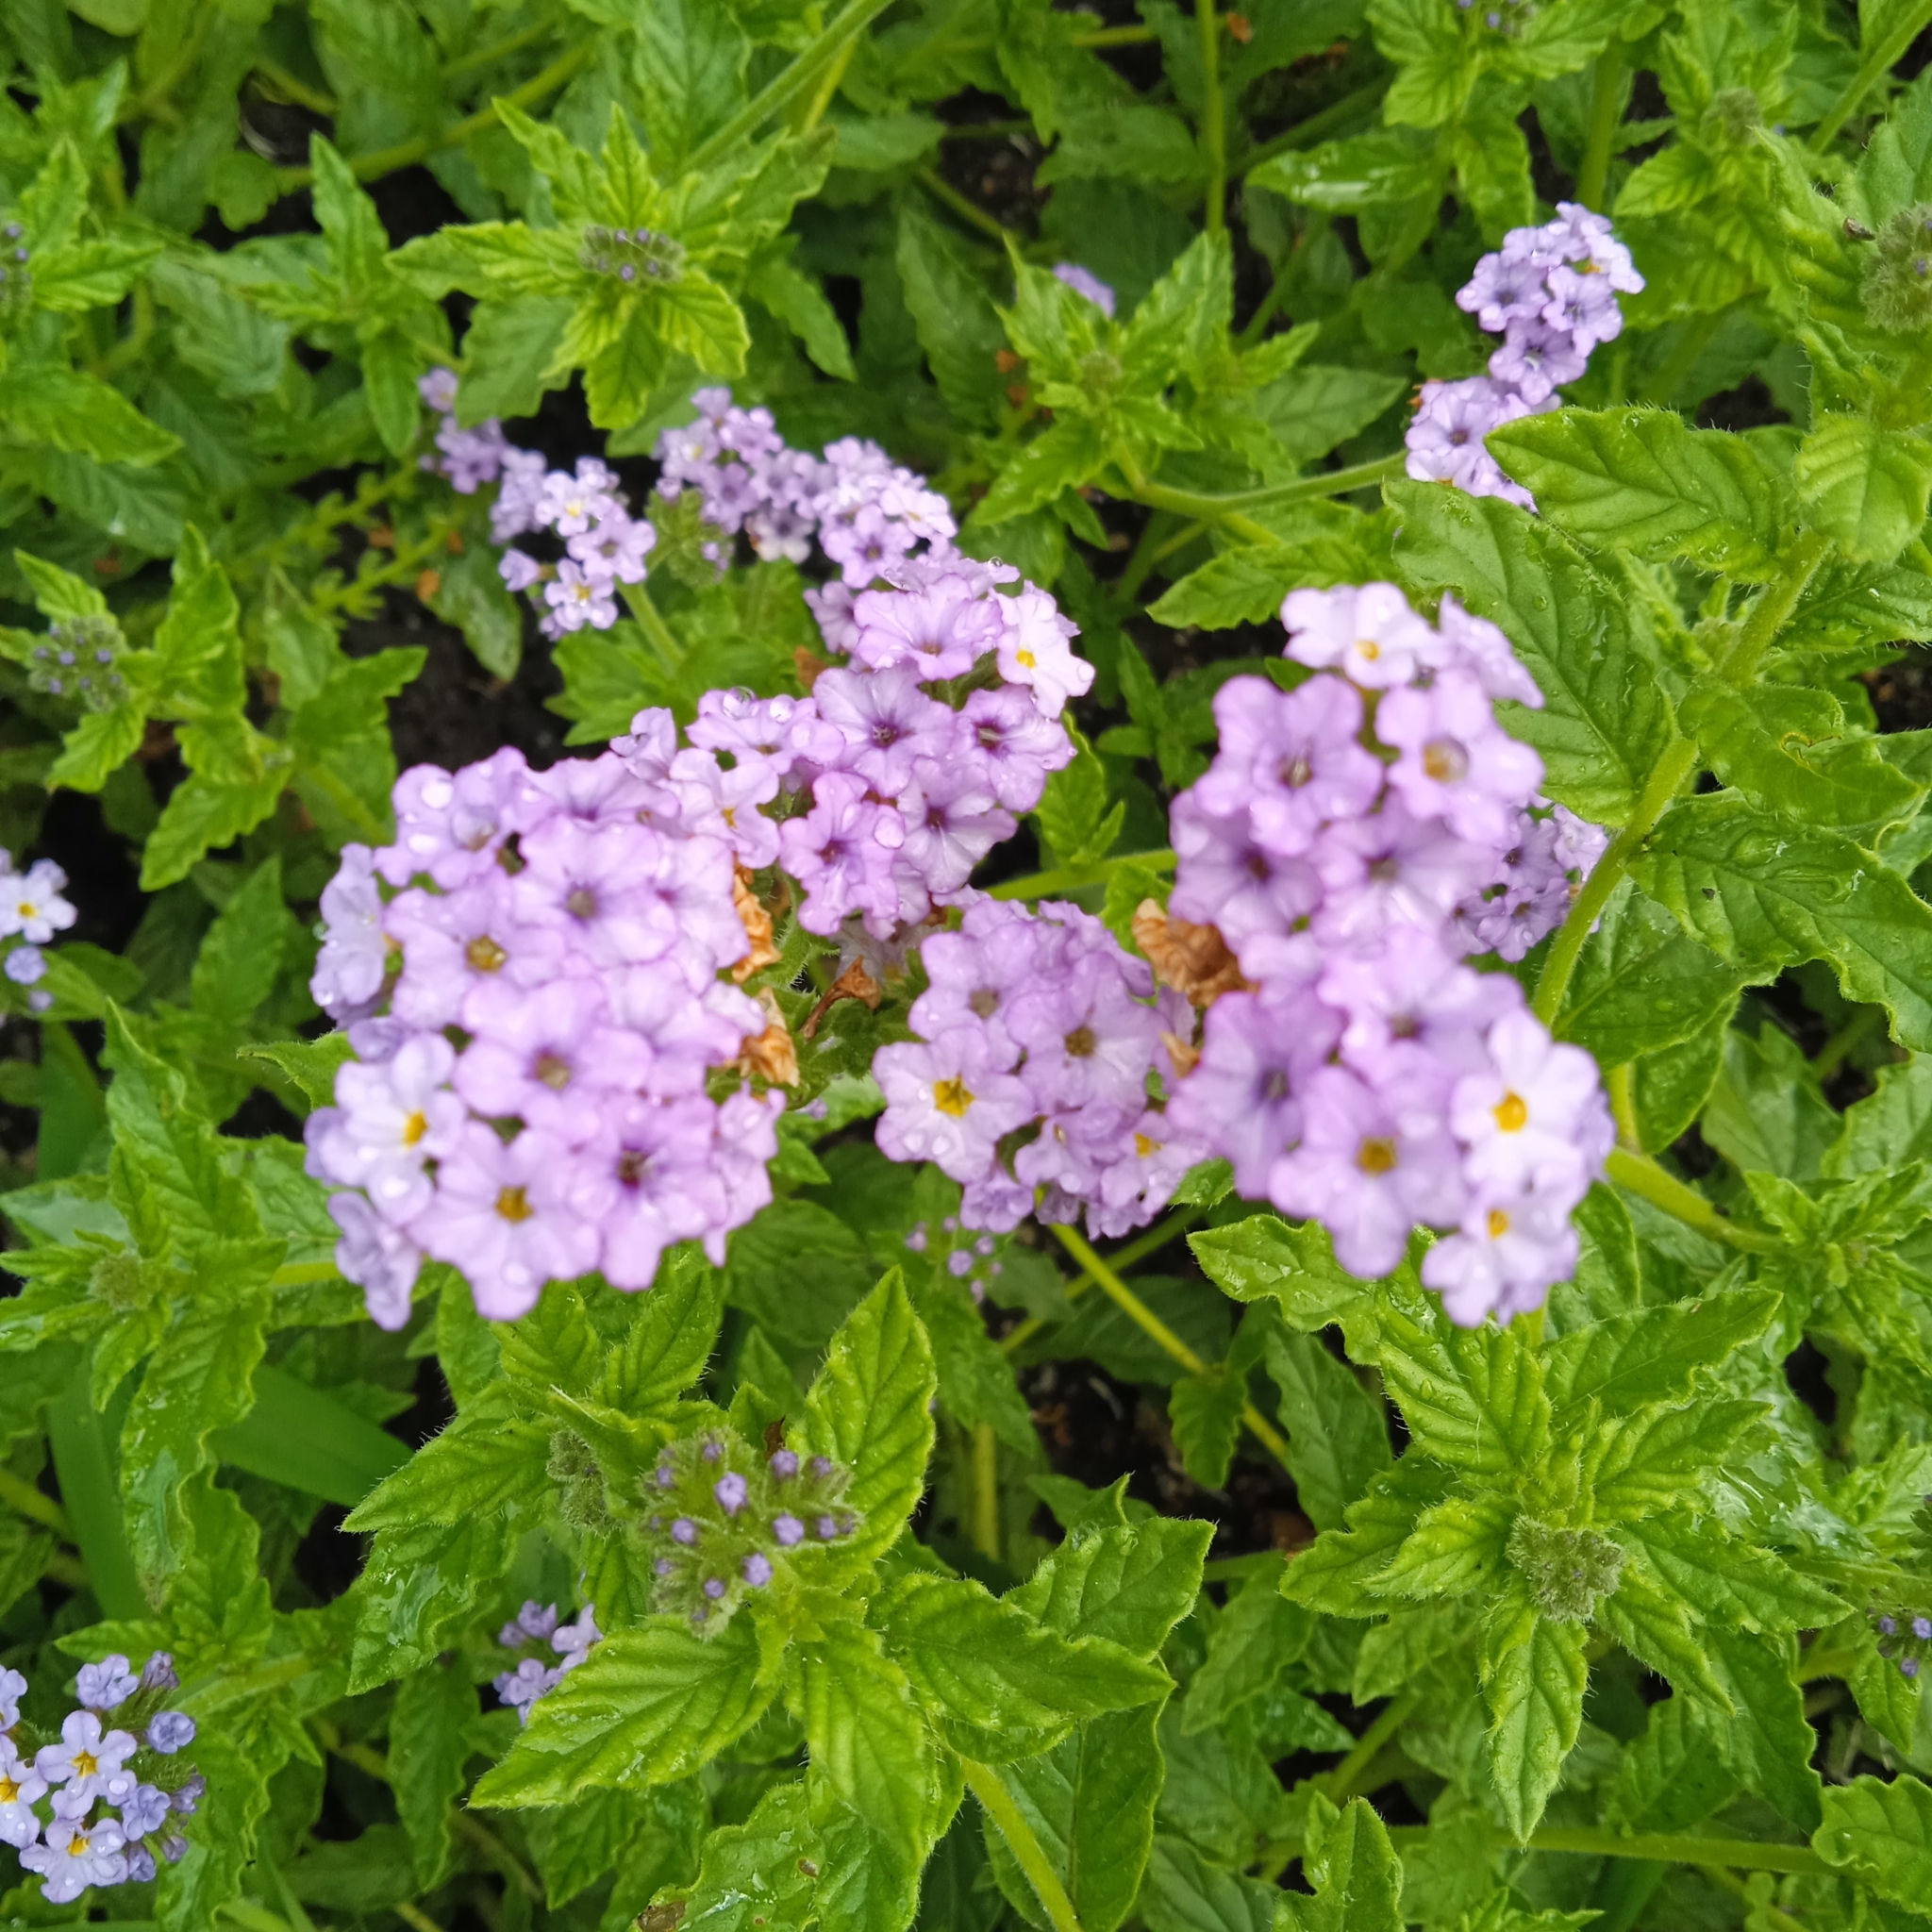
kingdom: Plantae
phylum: Tracheophyta
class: Magnoliopsida
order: Boraginales
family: Heliotropiaceae
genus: Heliotropium
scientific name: Heliotropium amplexicaule
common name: Clasping heliotrope
